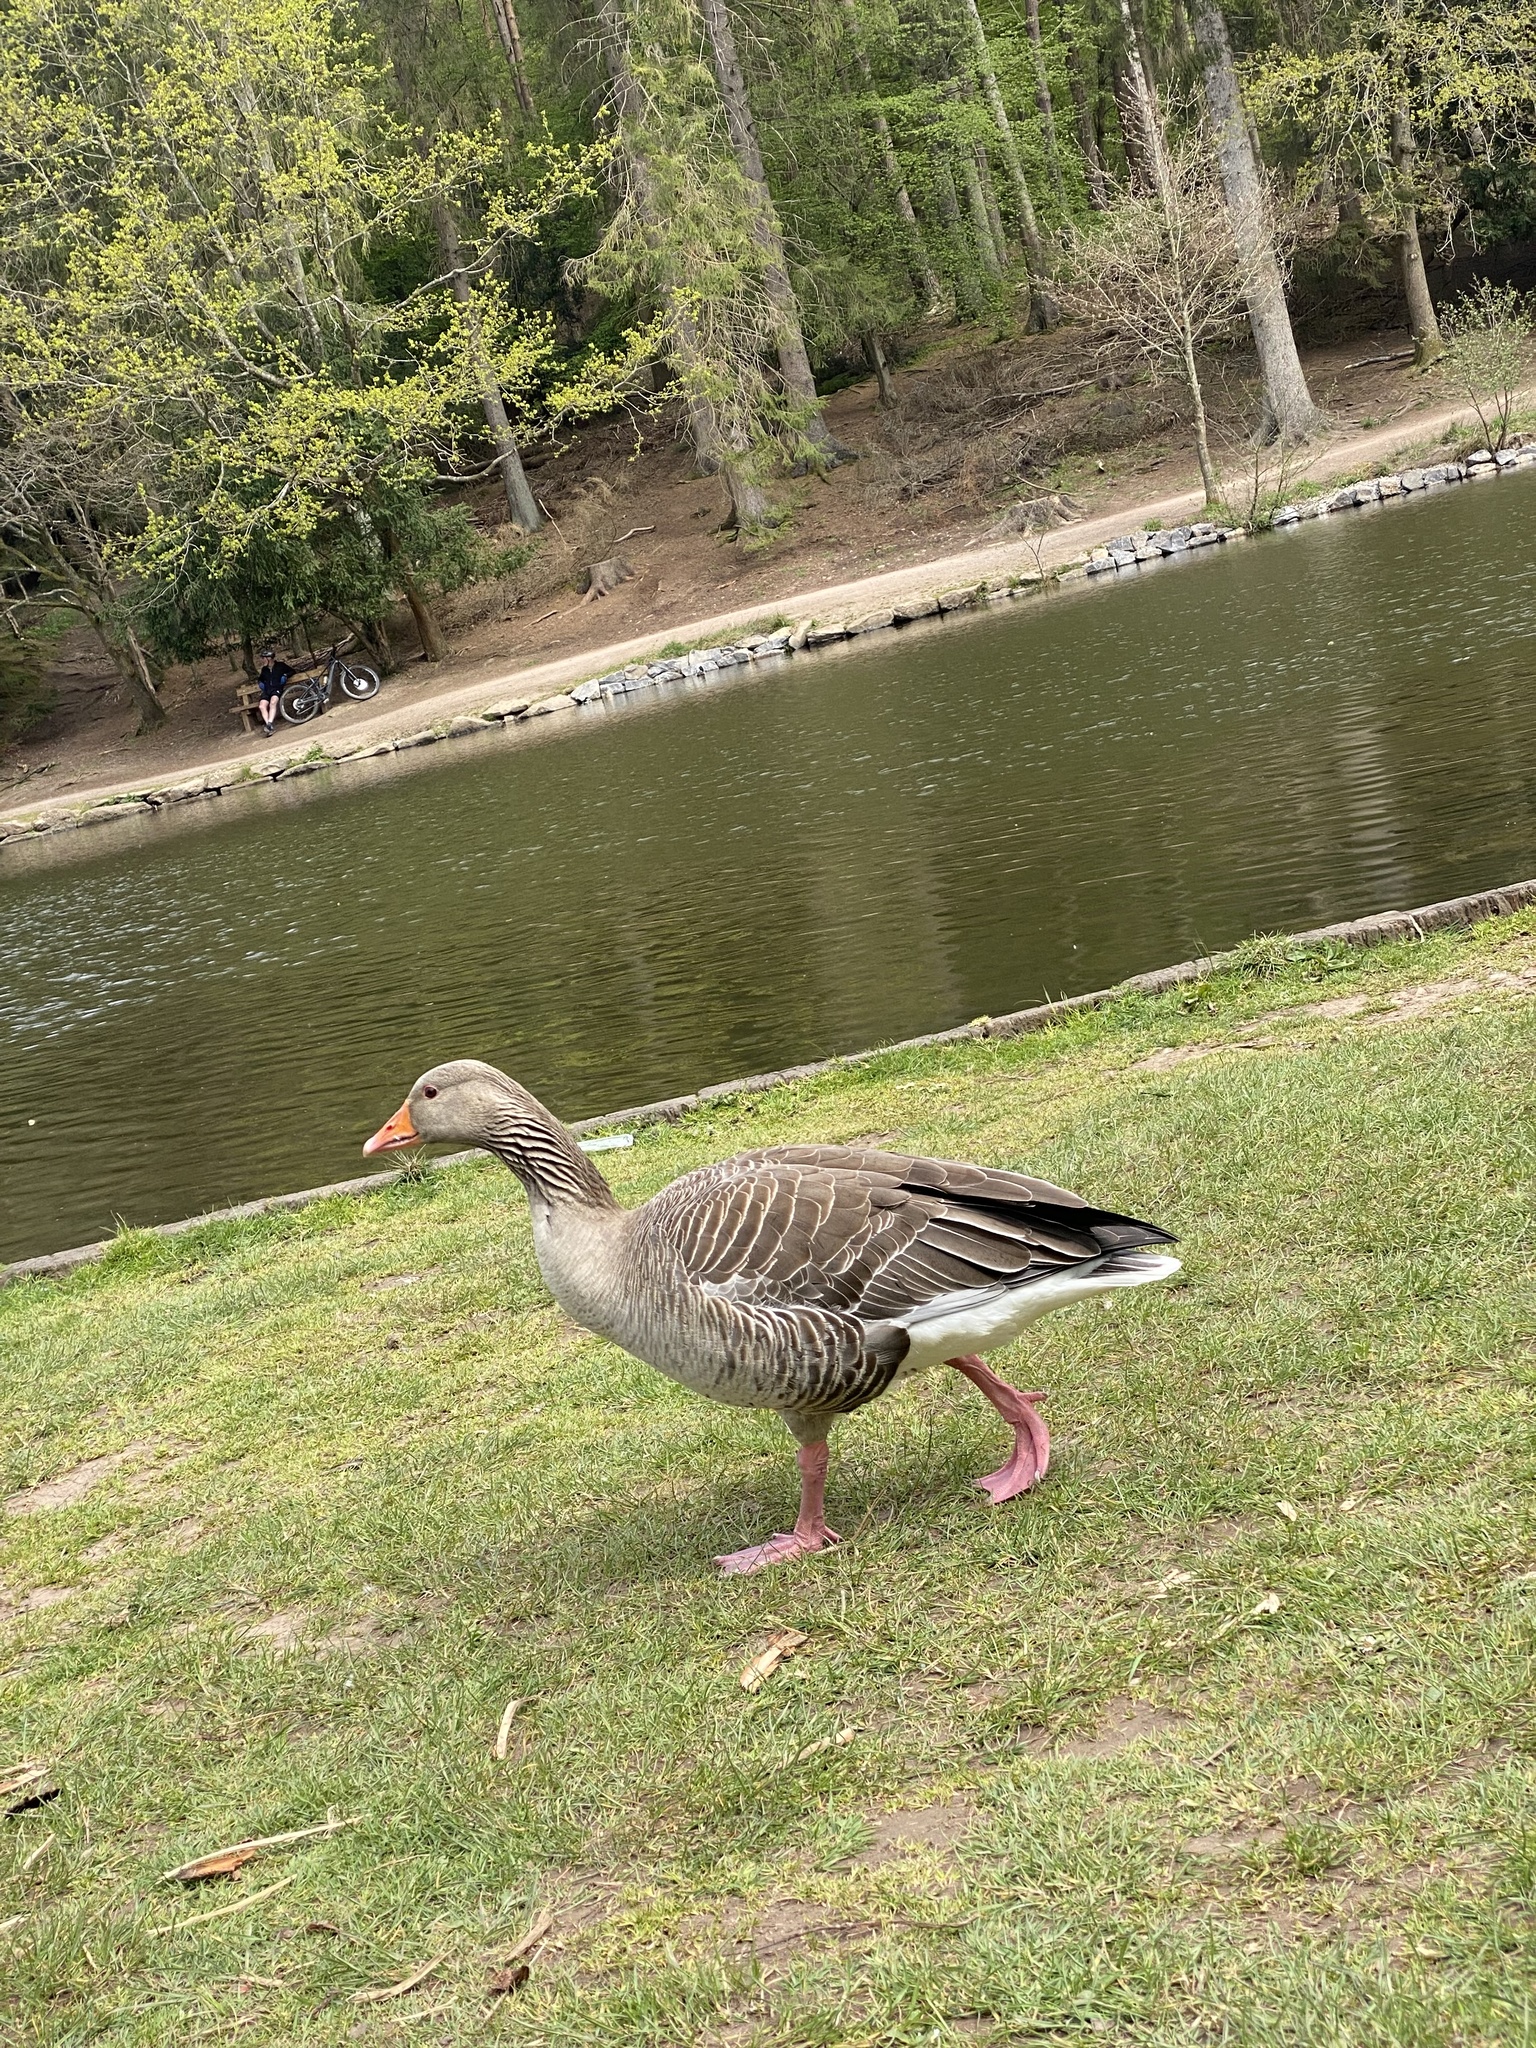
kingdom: Animalia
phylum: Chordata
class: Aves
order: Anseriformes
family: Anatidae
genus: Anser
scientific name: Anser anser
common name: Greylag goose
